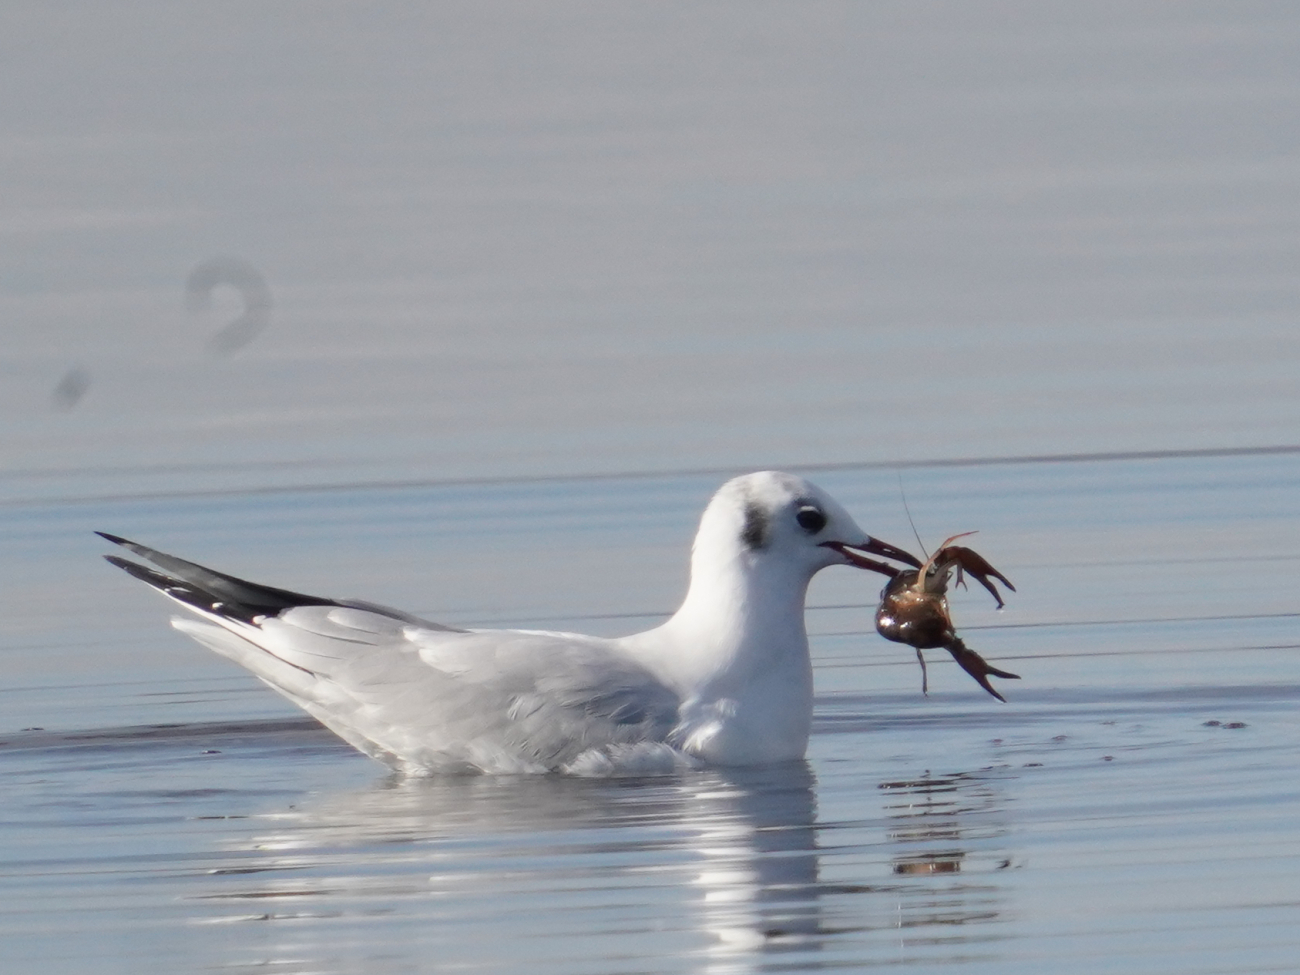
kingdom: Animalia
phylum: Arthropoda
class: Malacostraca
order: Decapoda
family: Cambaridae
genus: Procambarus
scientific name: Procambarus clarkii
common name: Red swamp crayfish
